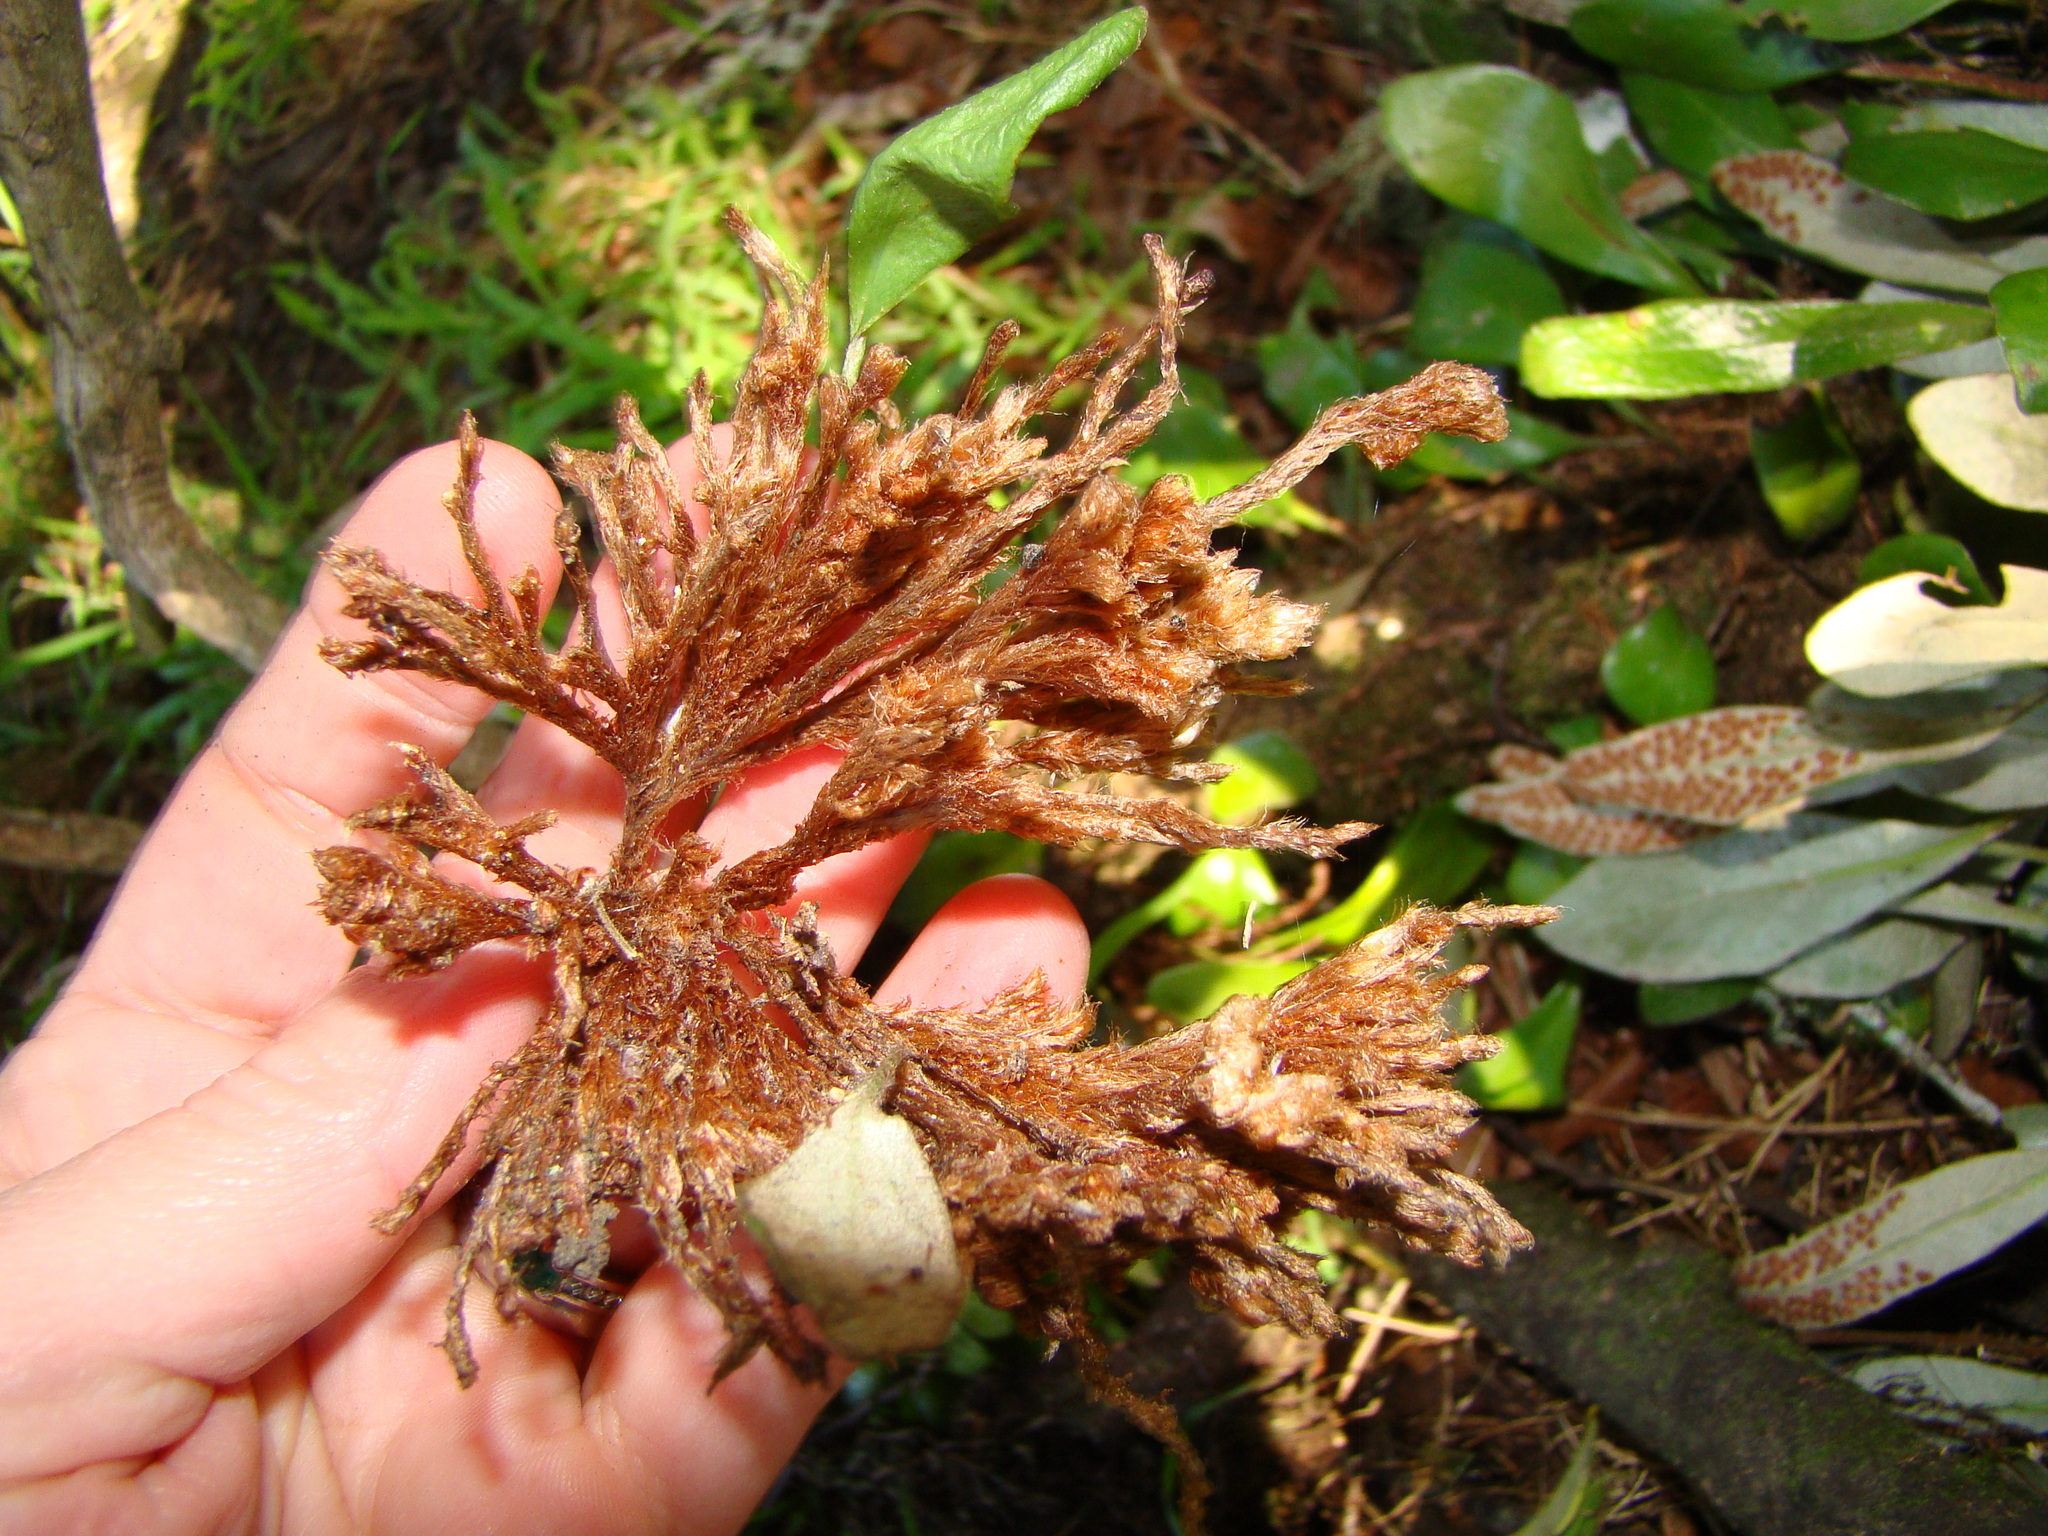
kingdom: Plantae
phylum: Tracheophyta
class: Polypodiopsida
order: Polypodiales
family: Polypodiaceae
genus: Pyrrosia
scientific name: Pyrrosia eleagnifolia
